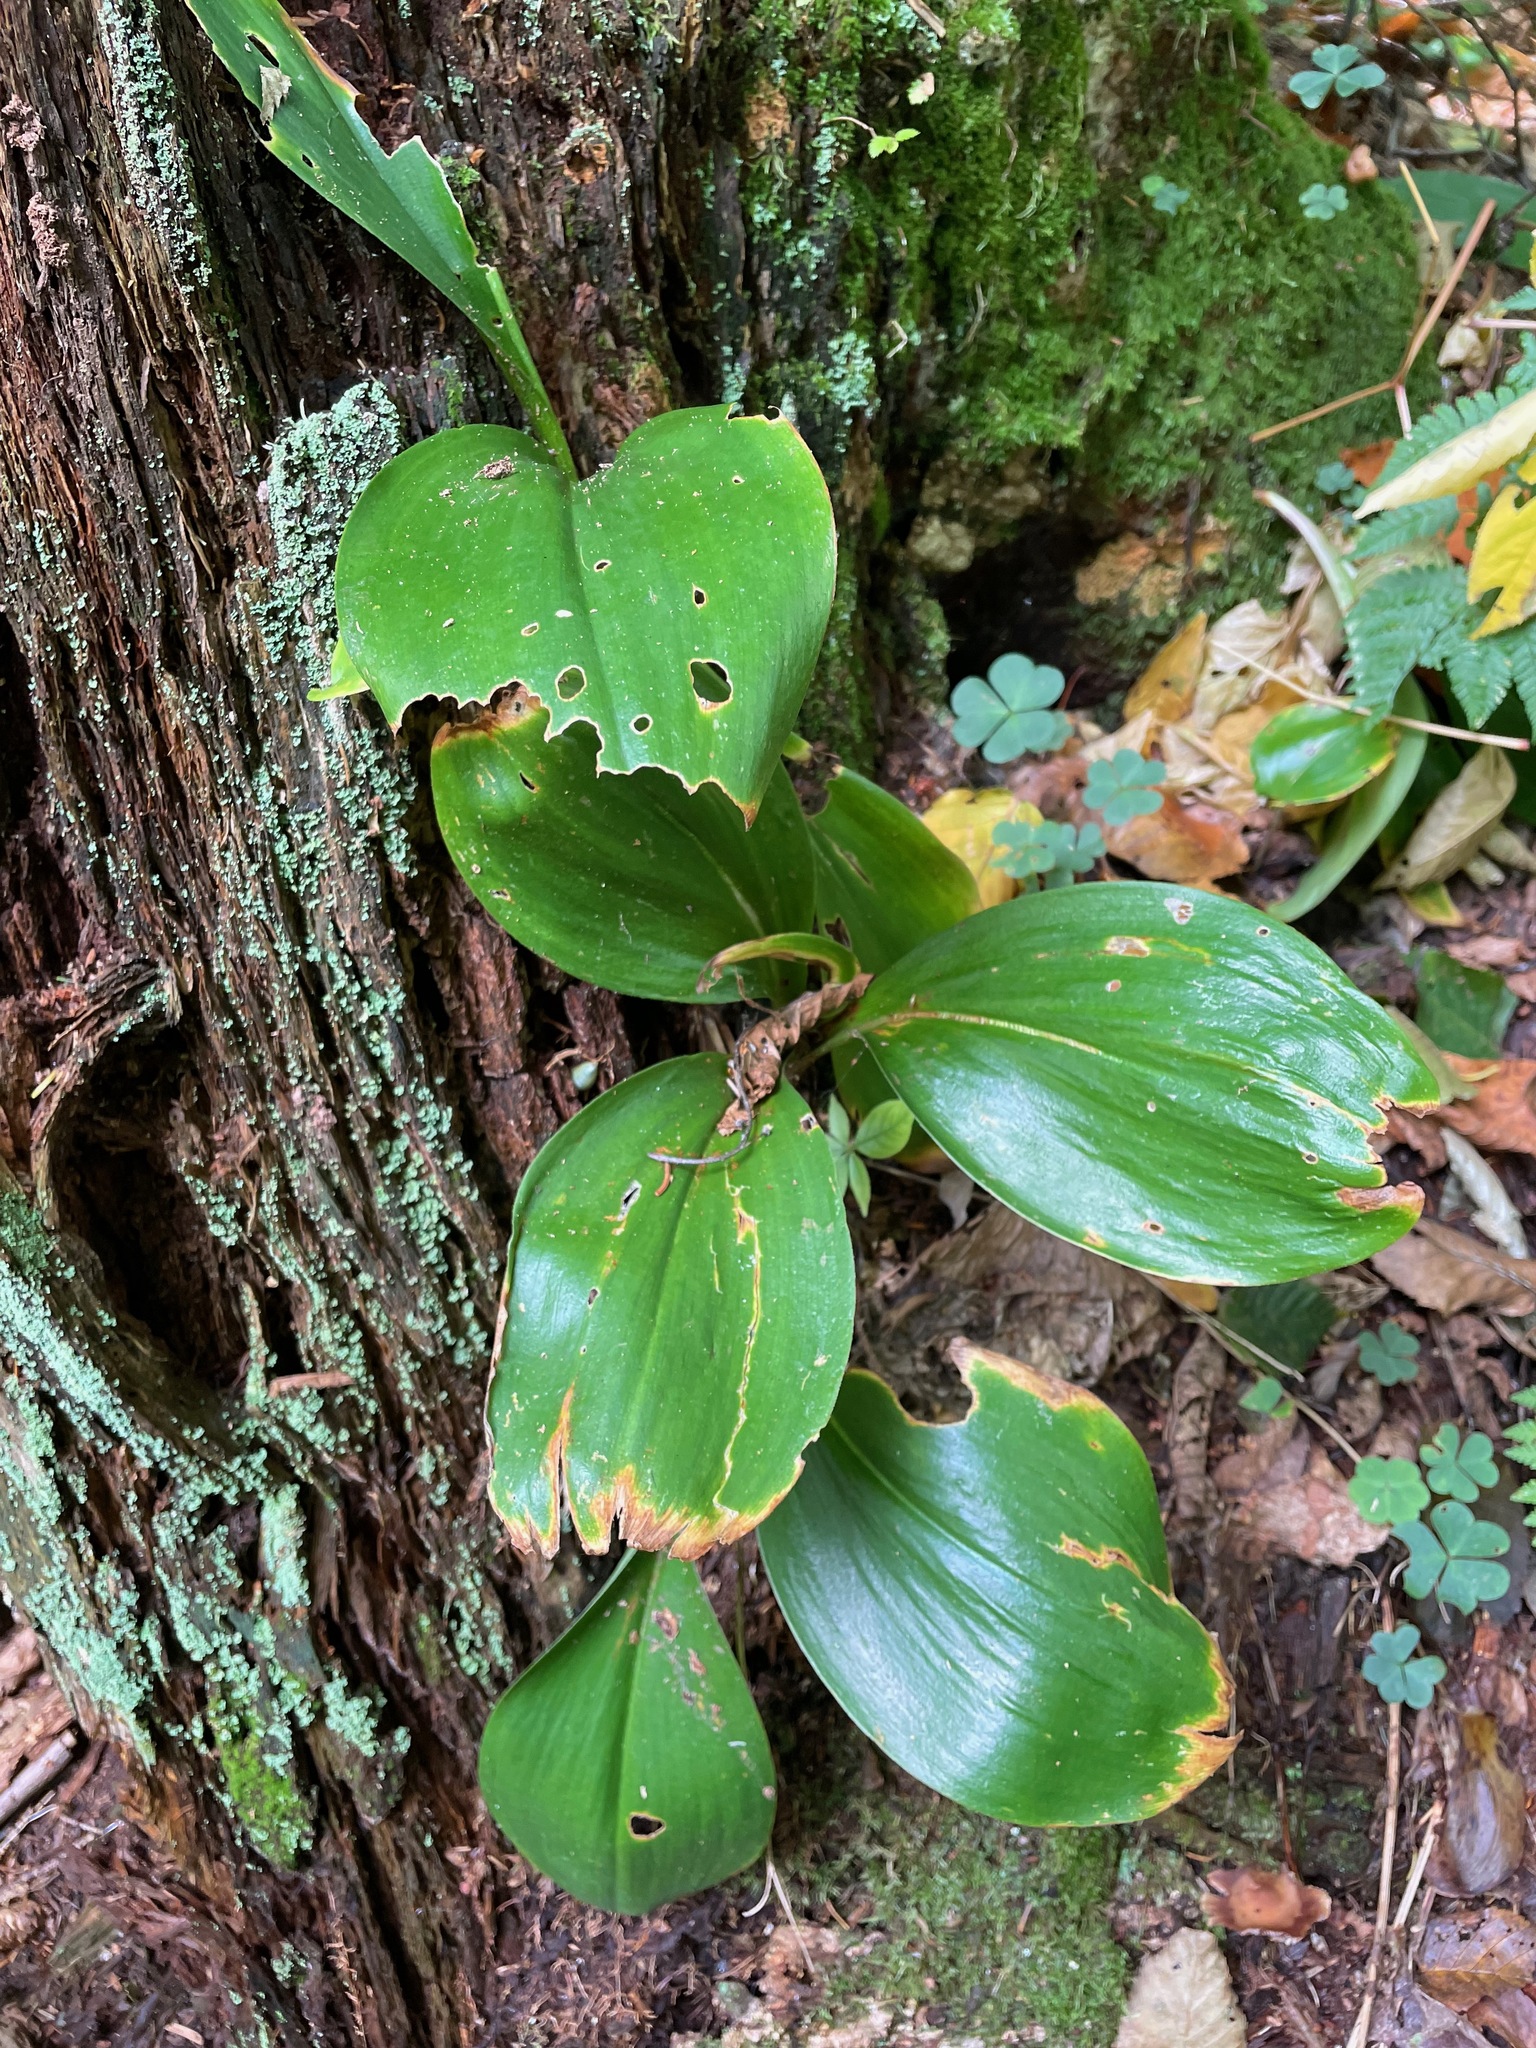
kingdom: Plantae
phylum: Tracheophyta
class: Liliopsida
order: Liliales
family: Liliaceae
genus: Clintonia
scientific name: Clintonia borealis
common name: Yellow clintonia
